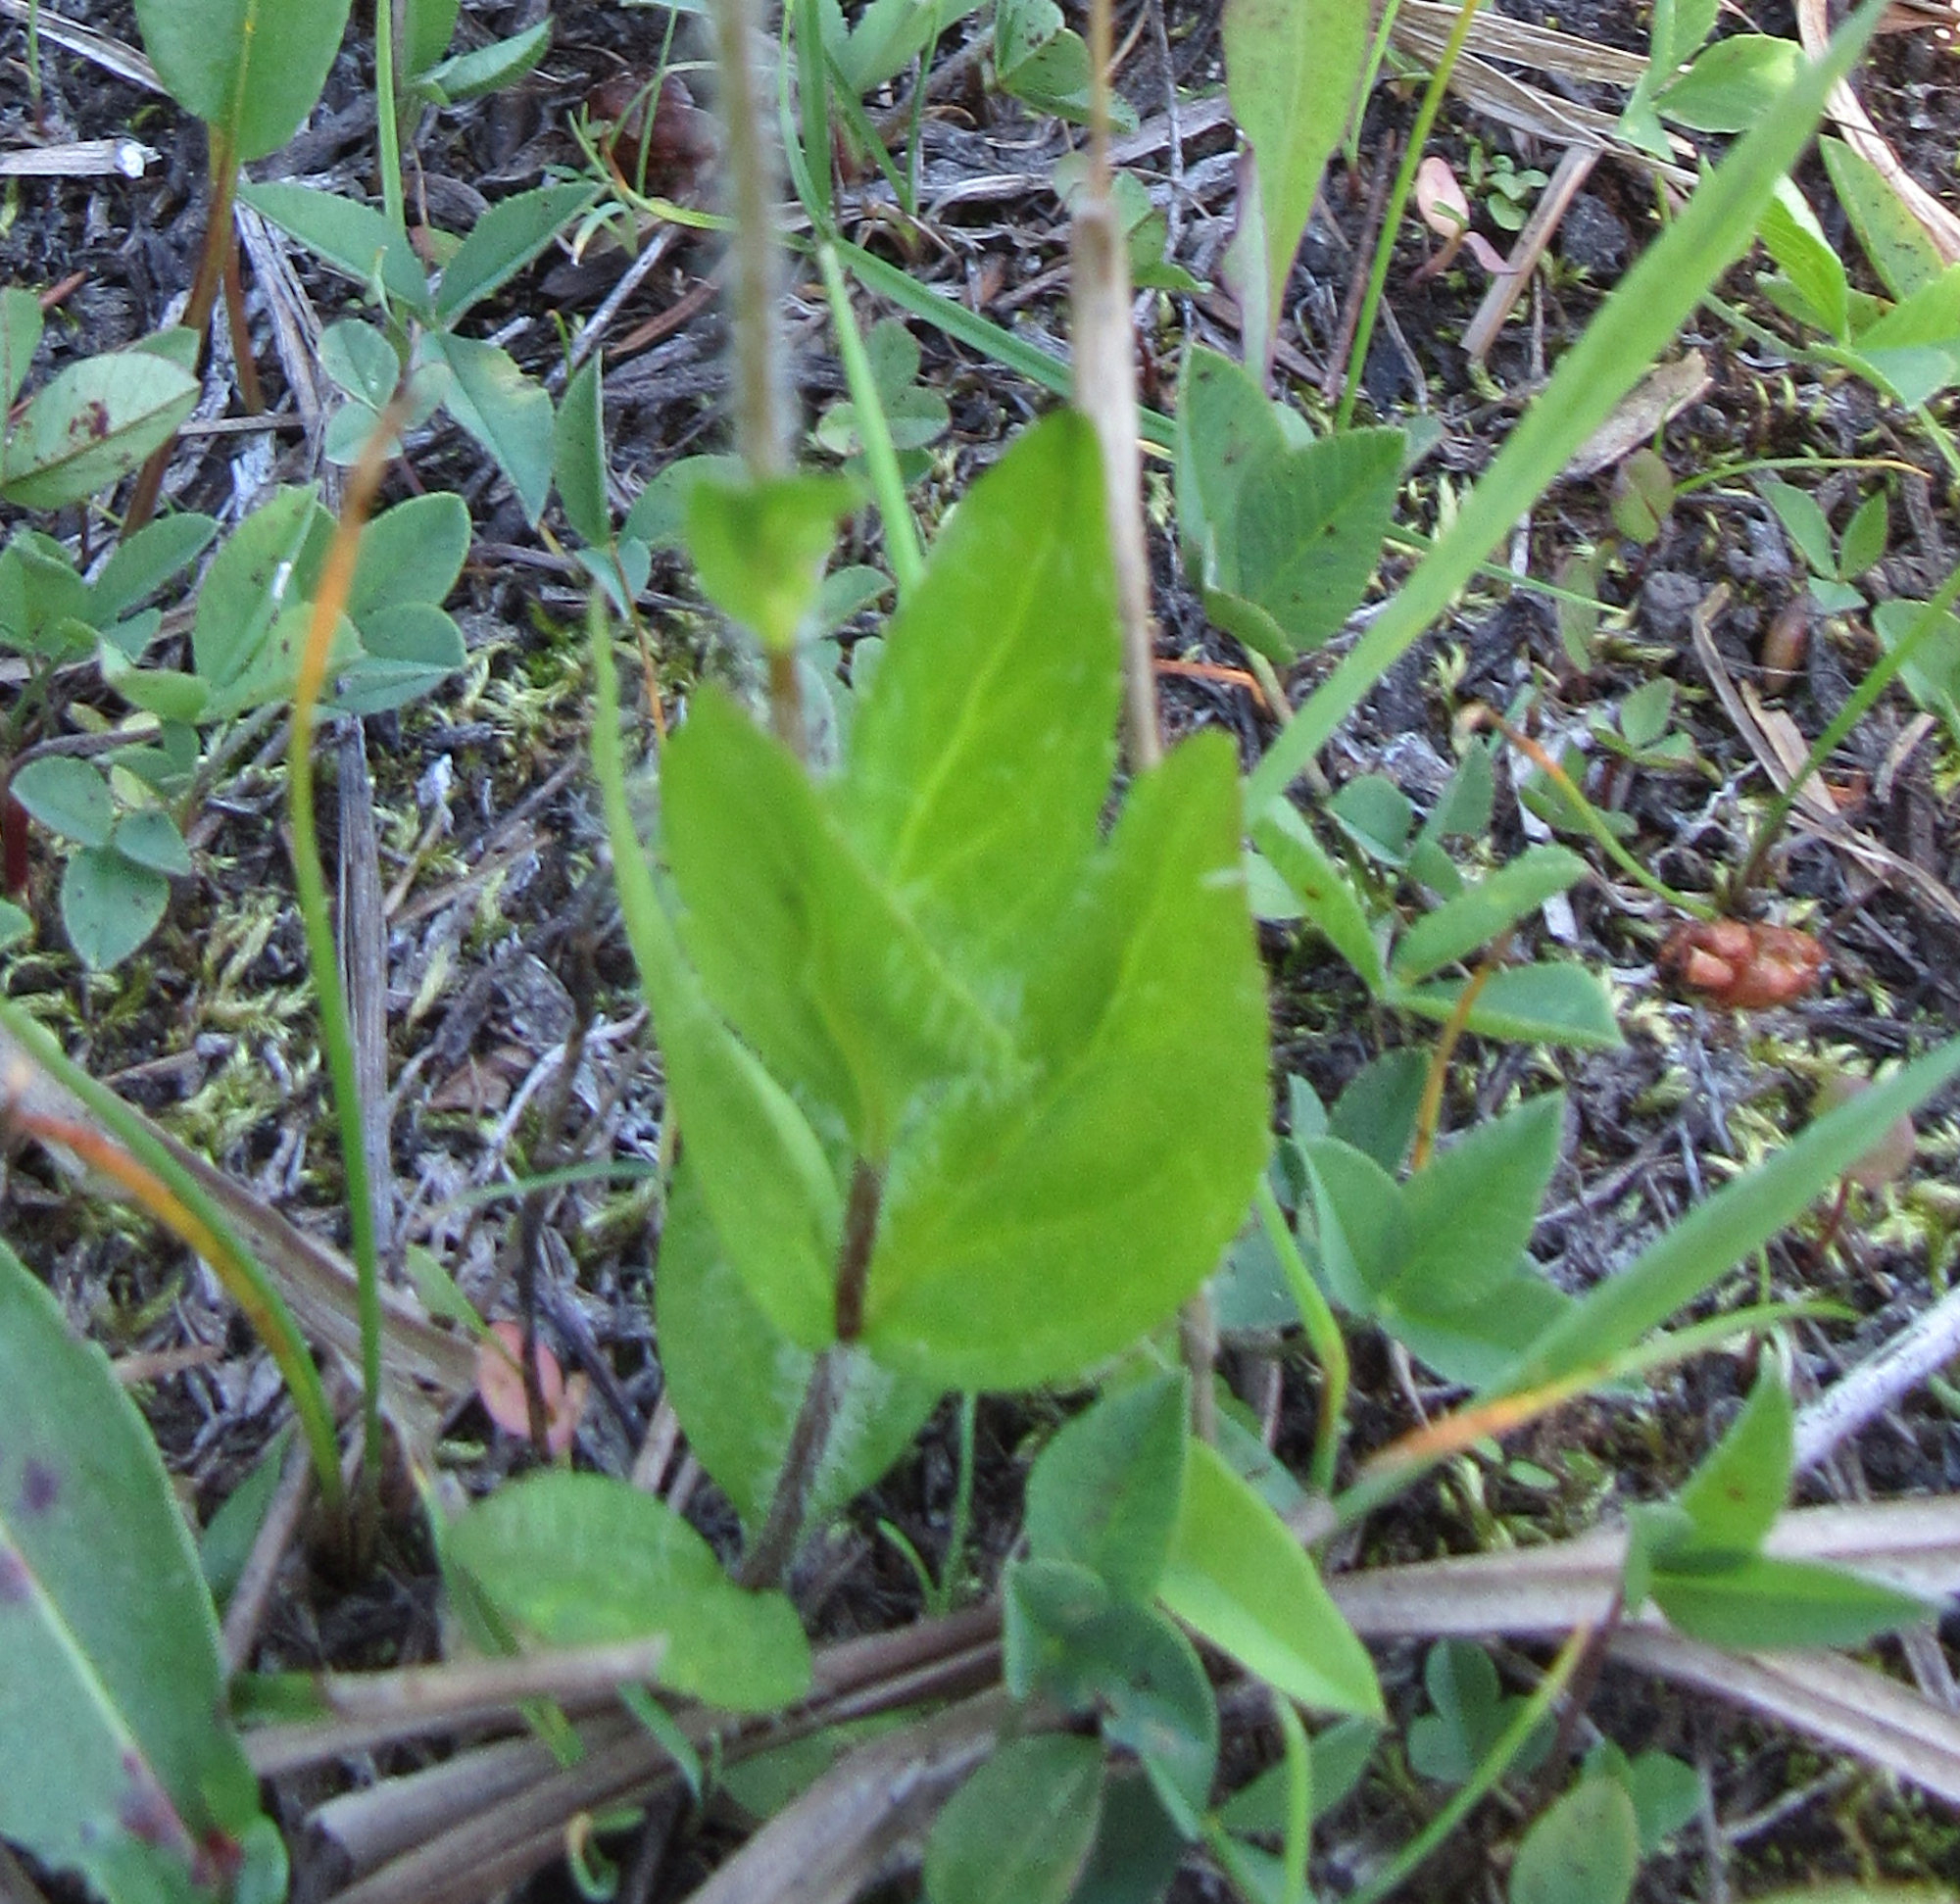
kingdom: Plantae
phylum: Tracheophyta
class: Magnoliopsida
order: Lamiales
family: Plantaginaceae
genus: Veronica
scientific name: Veronica wormskjoldii
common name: American alpine speedwell
